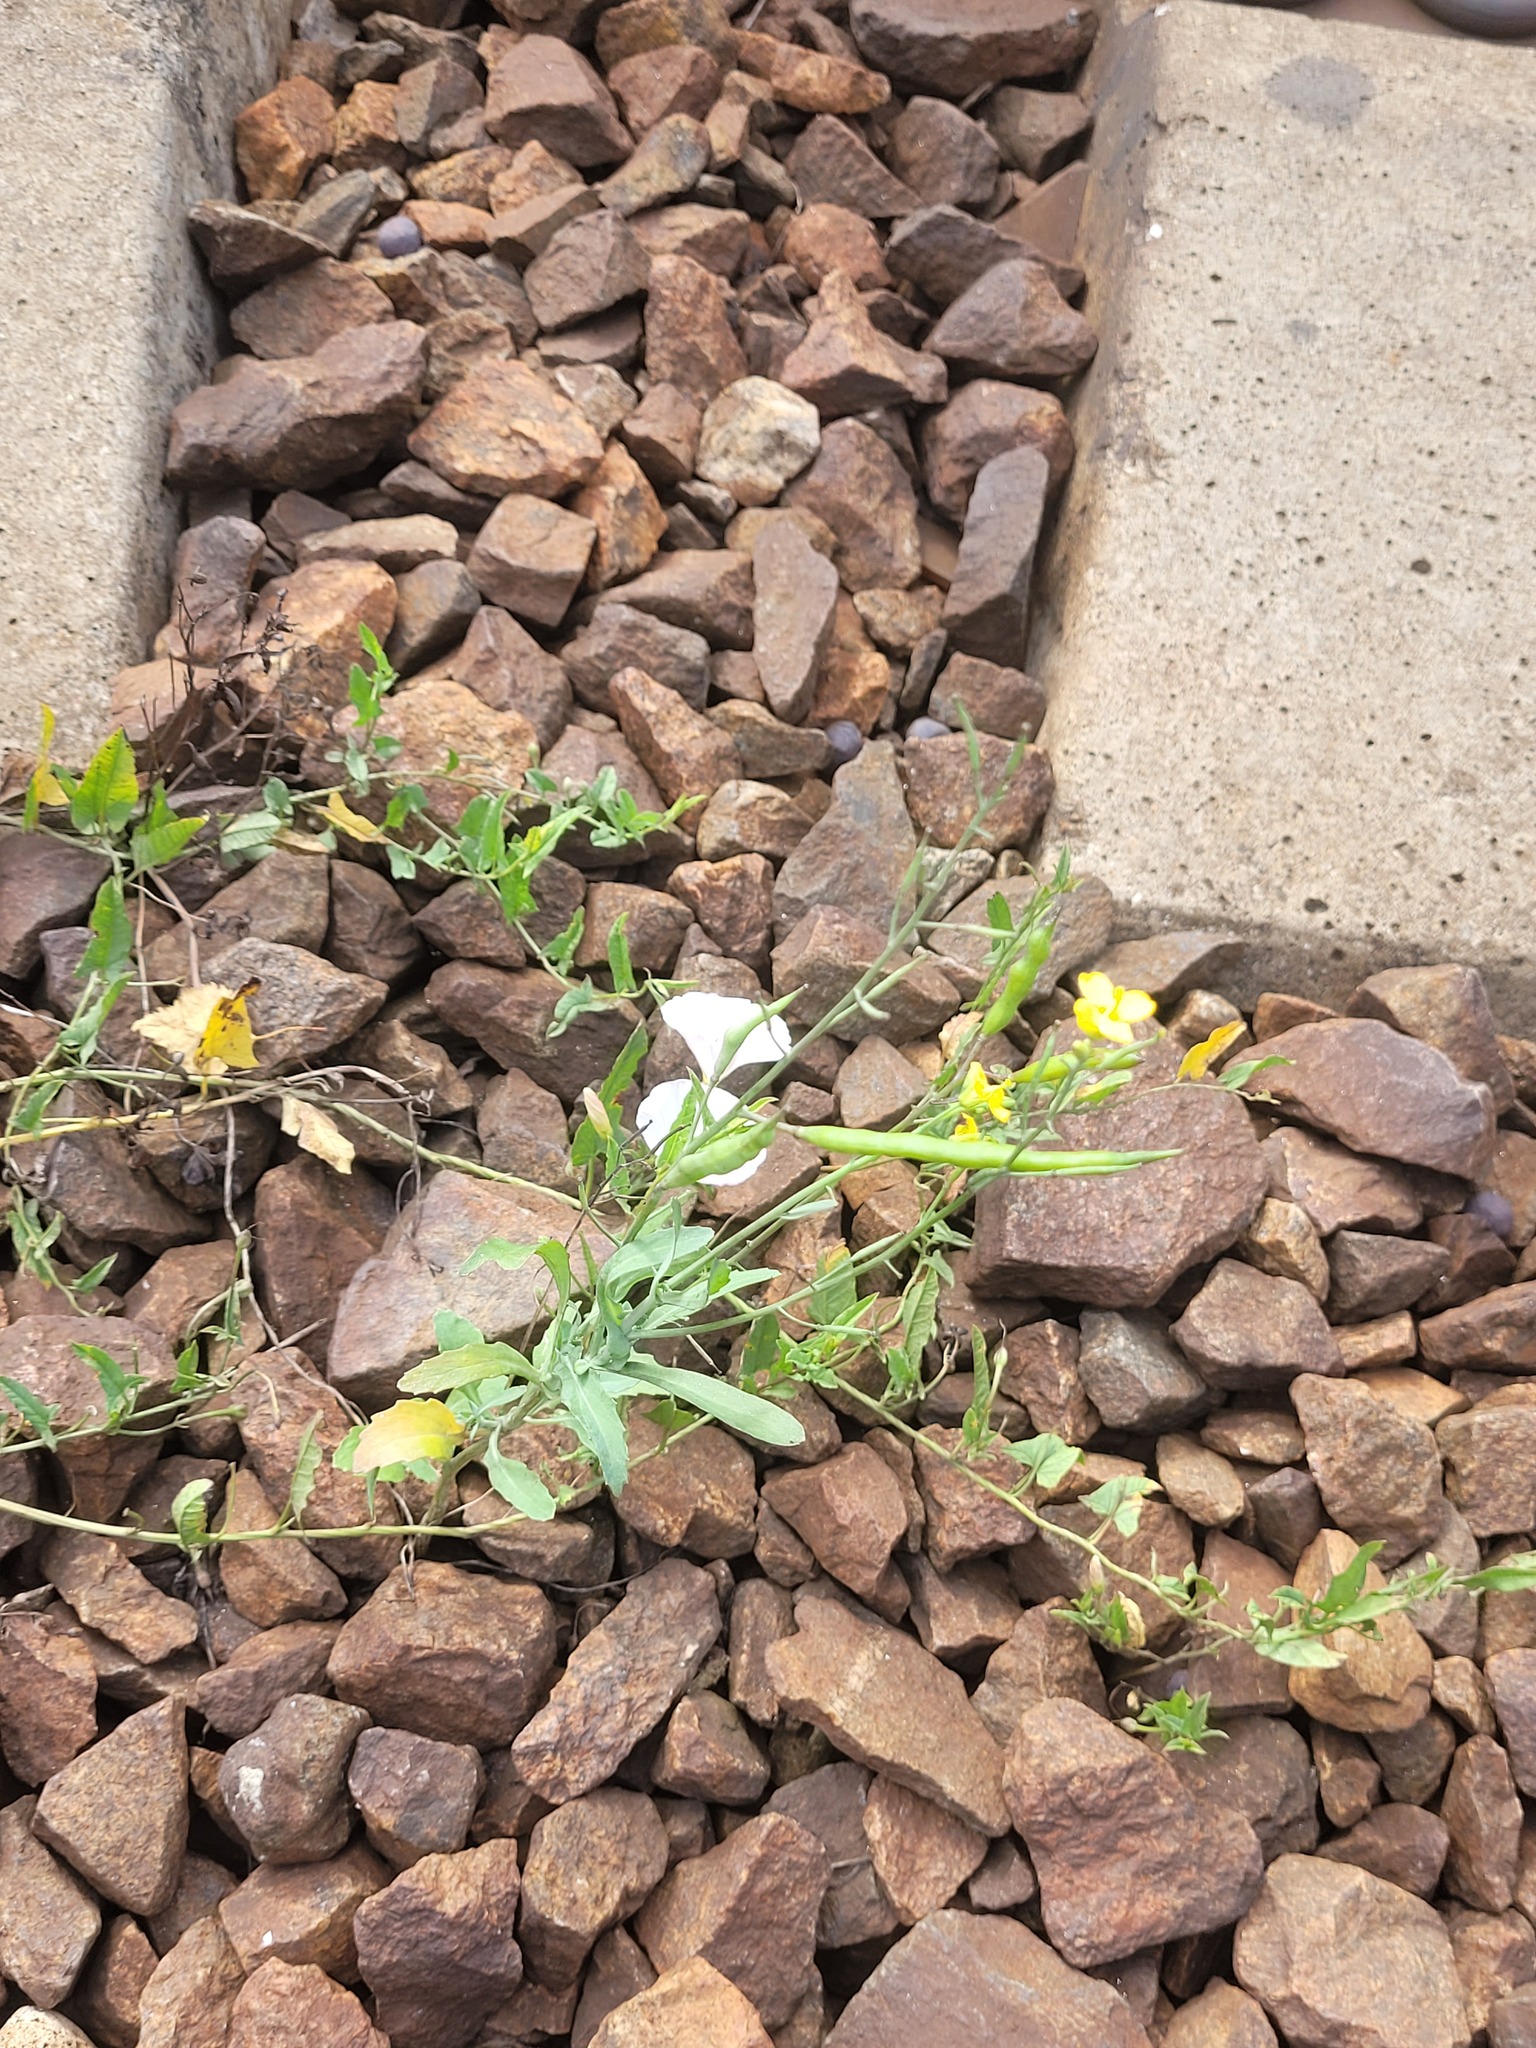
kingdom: Plantae
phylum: Tracheophyta
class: Magnoliopsida
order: Brassicales
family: Brassicaceae
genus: Brassica
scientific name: Brassica napus
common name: Rape
